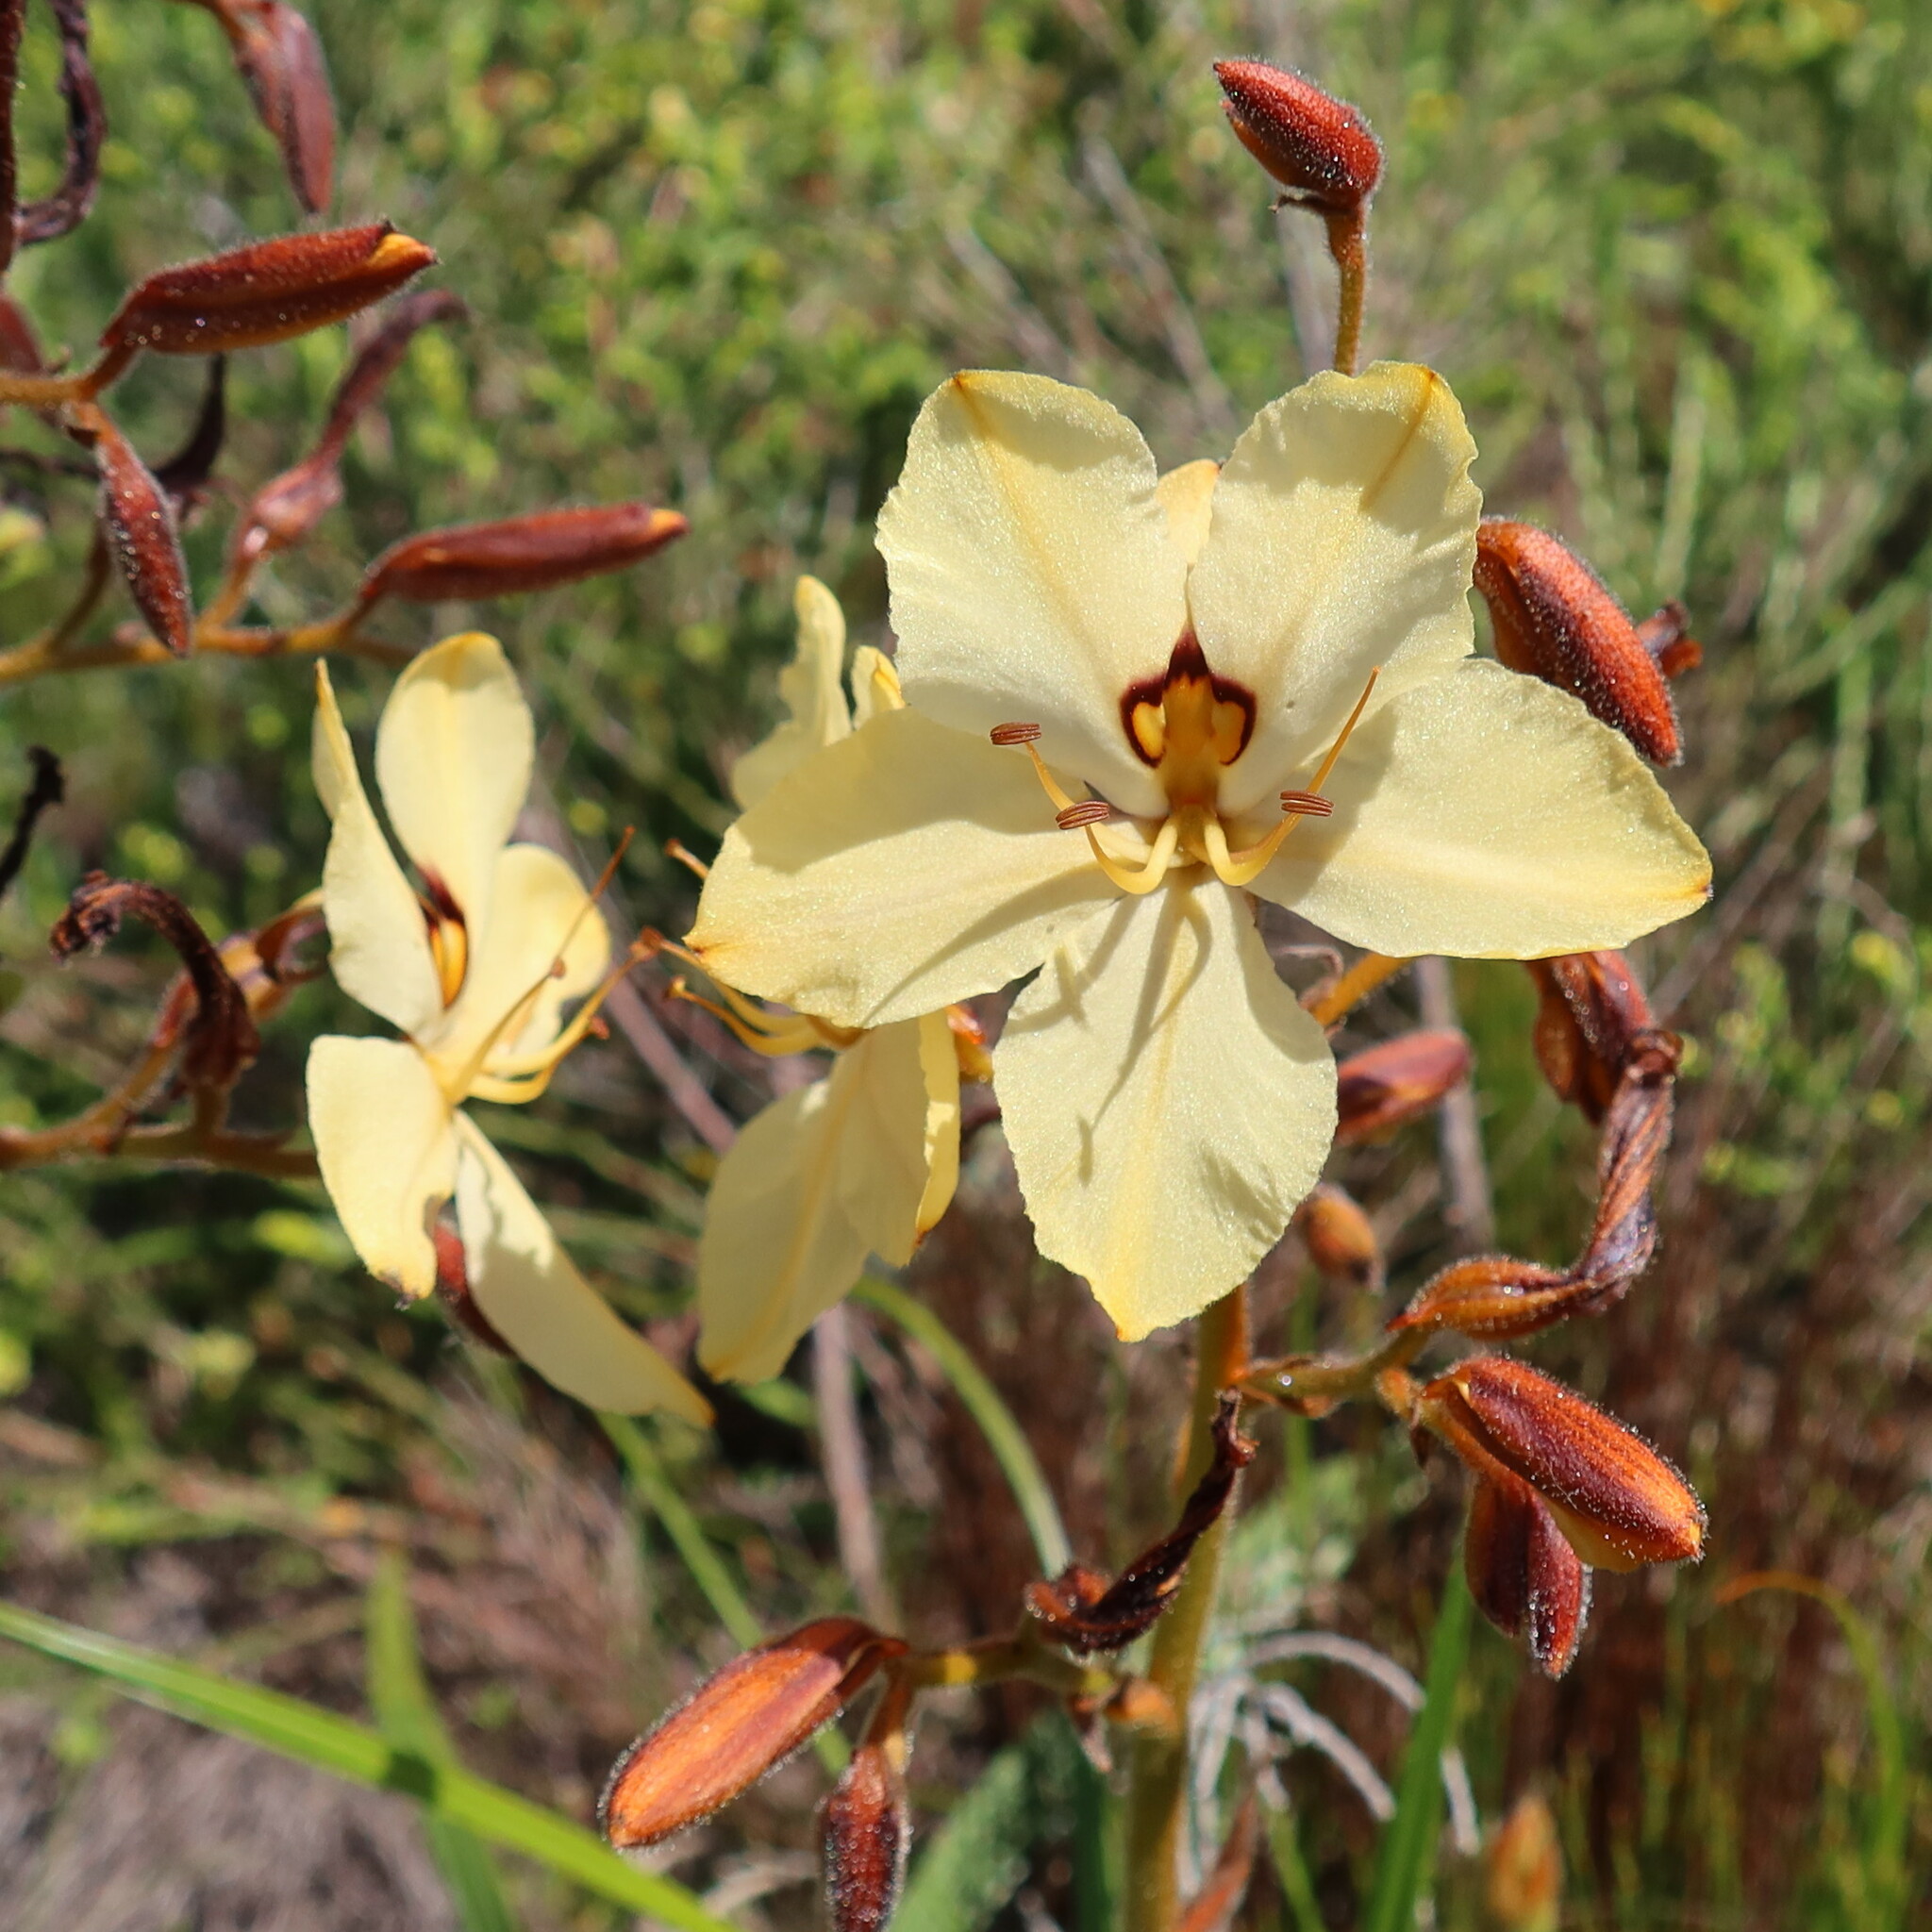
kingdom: Plantae
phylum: Tracheophyta
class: Liliopsida
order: Commelinales
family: Haemodoraceae
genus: Wachendorfia
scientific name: Wachendorfia paniculata
